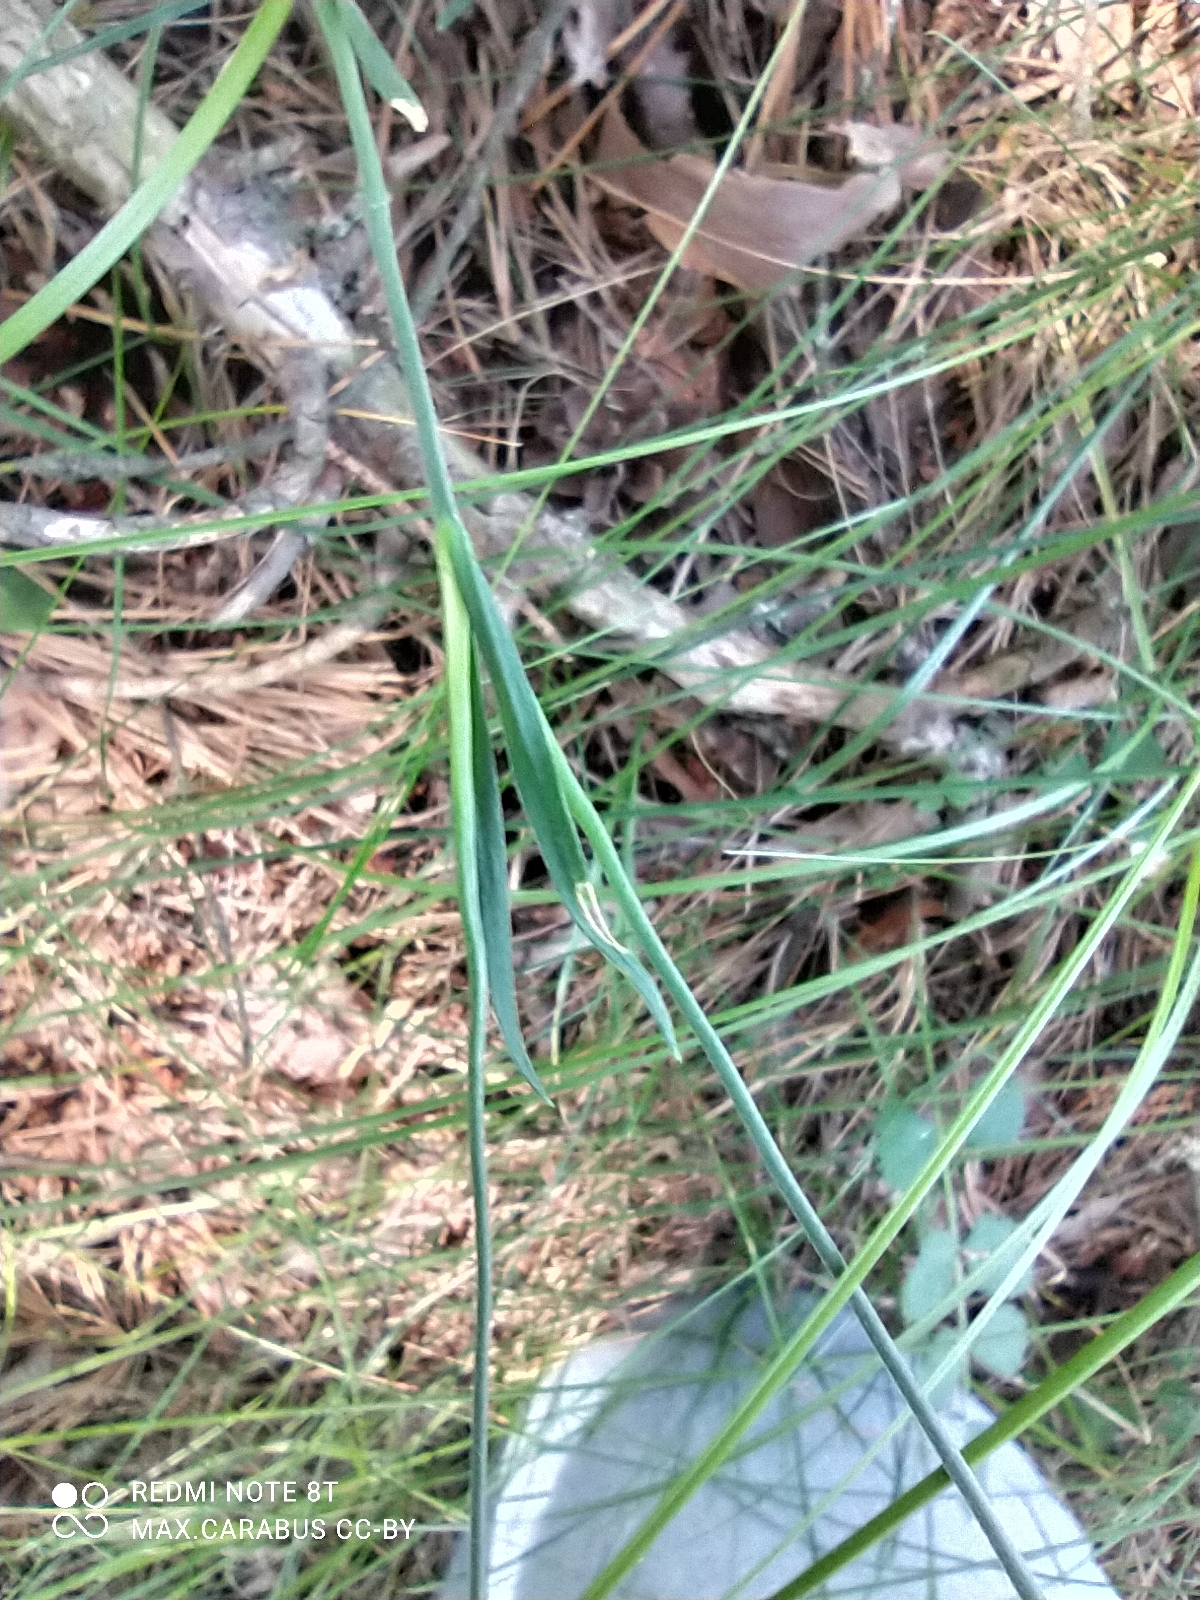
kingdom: Plantae
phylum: Tracheophyta
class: Magnoliopsida
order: Caryophyllales
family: Caryophyllaceae
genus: Dianthus
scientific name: Dianthus deltoides
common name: Maiden pink
